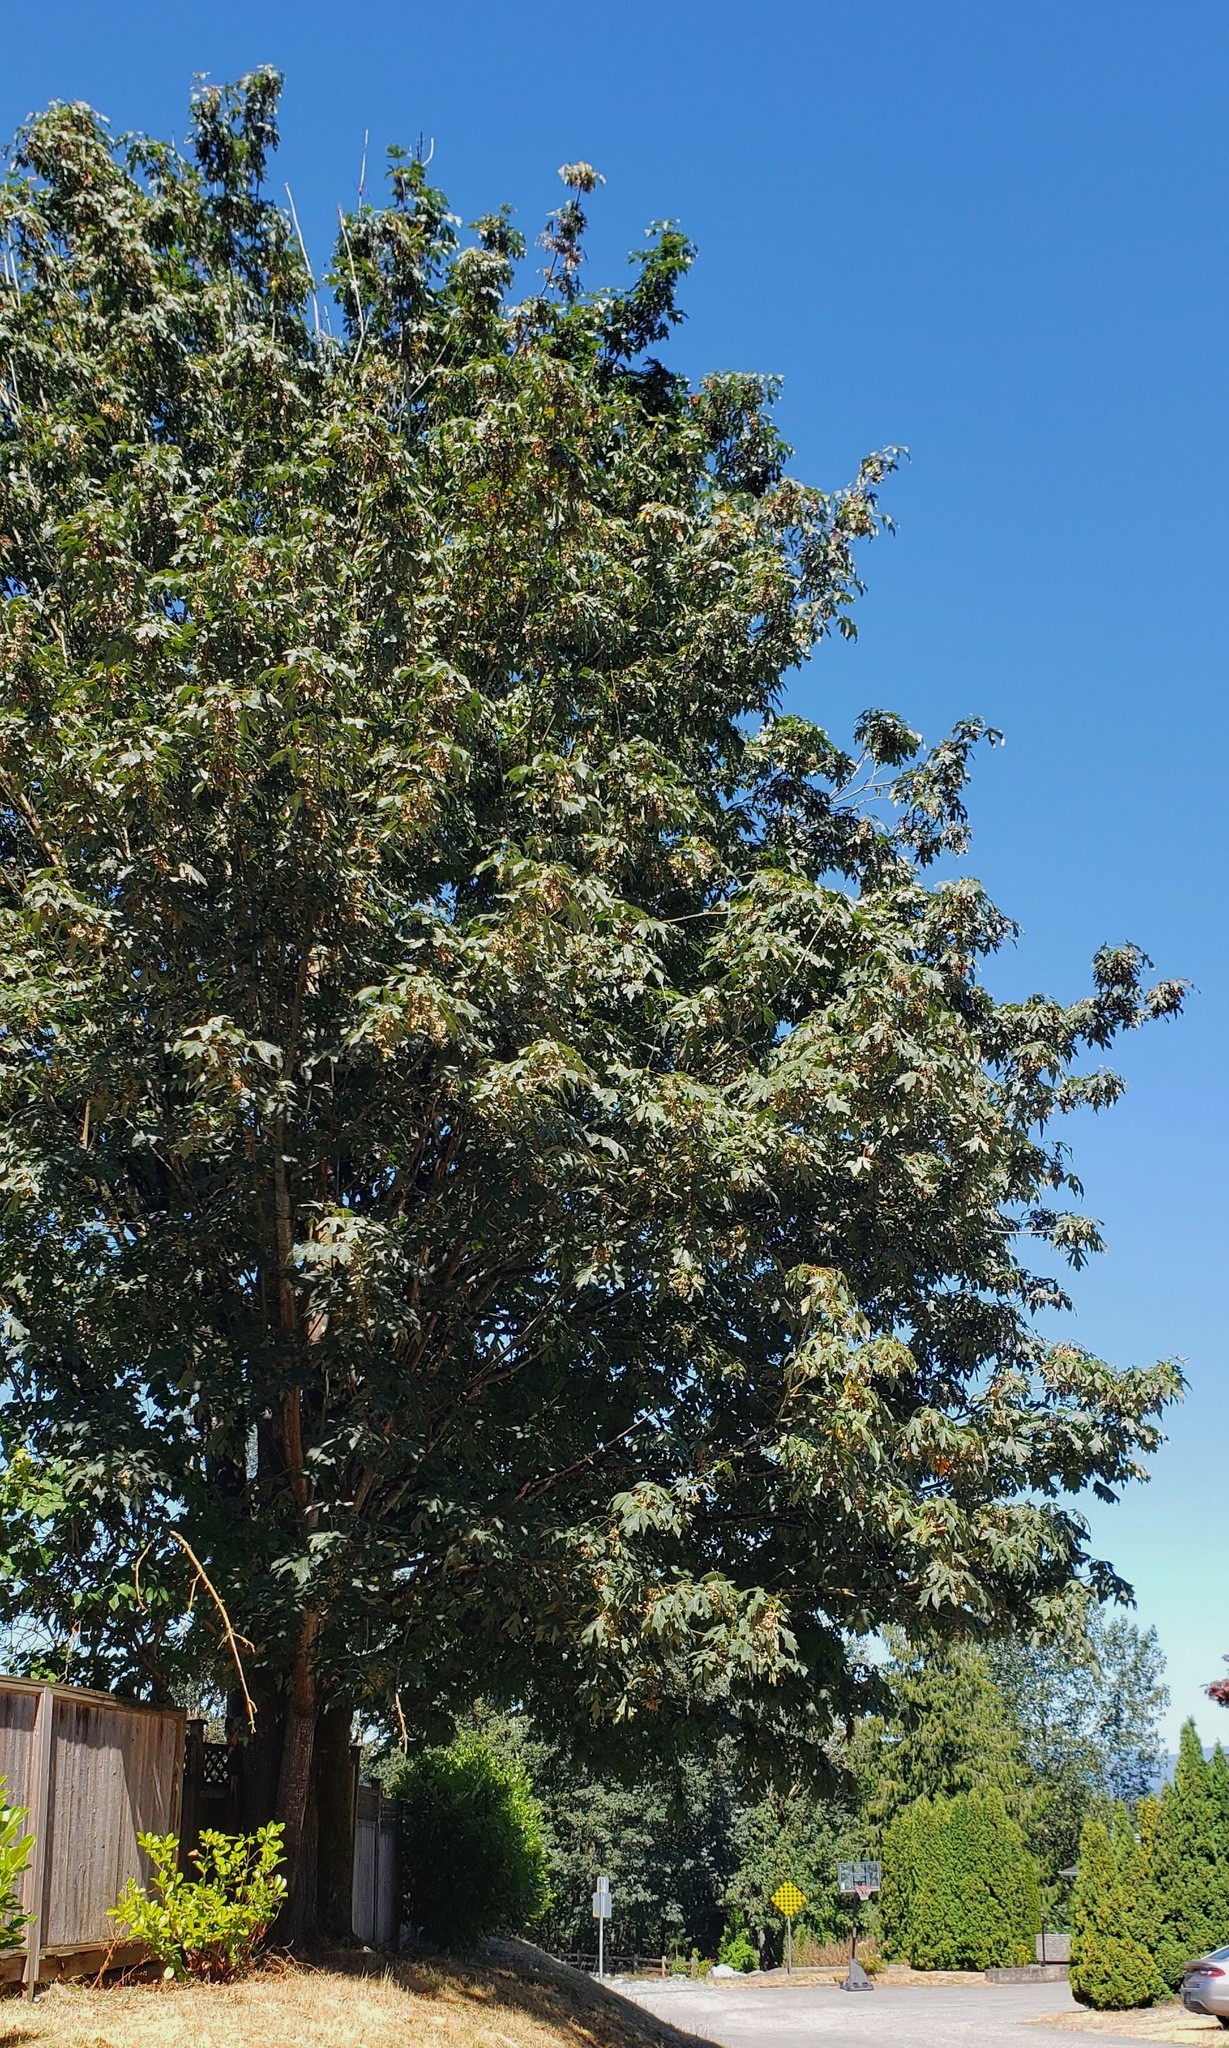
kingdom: Plantae
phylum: Tracheophyta
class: Magnoliopsida
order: Sapindales
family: Sapindaceae
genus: Acer
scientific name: Acer macrophyllum
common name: Oregon maple
